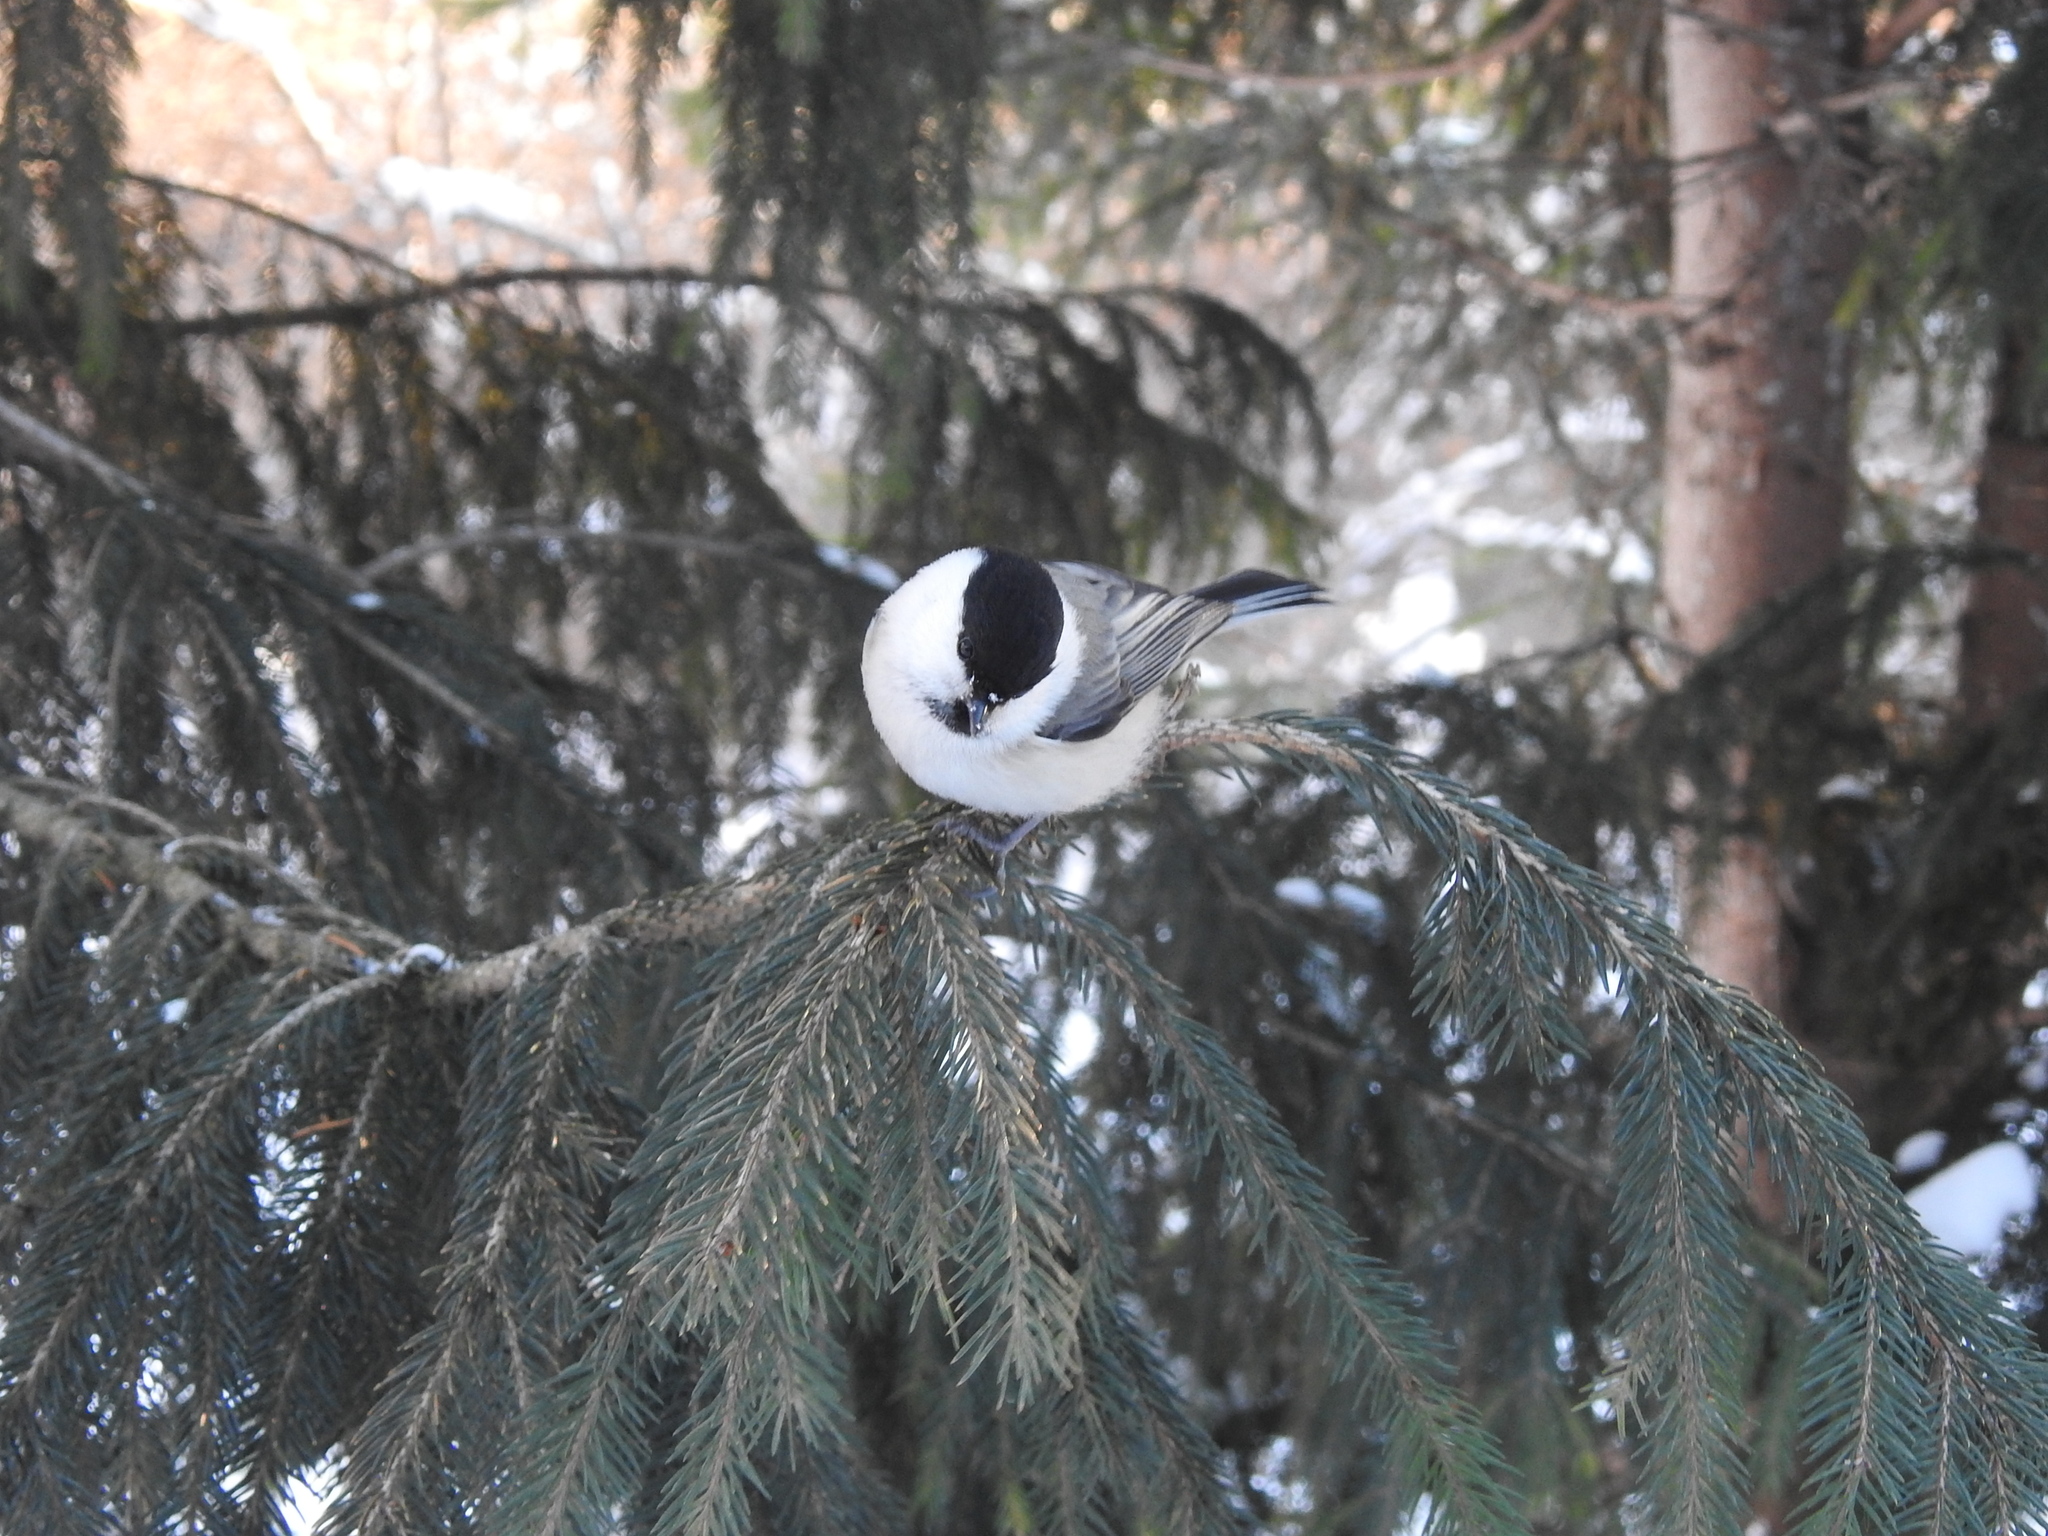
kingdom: Animalia
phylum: Chordata
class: Aves
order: Passeriformes
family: Paridae
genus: Poecile
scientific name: Poecile montanus
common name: Willow tit
